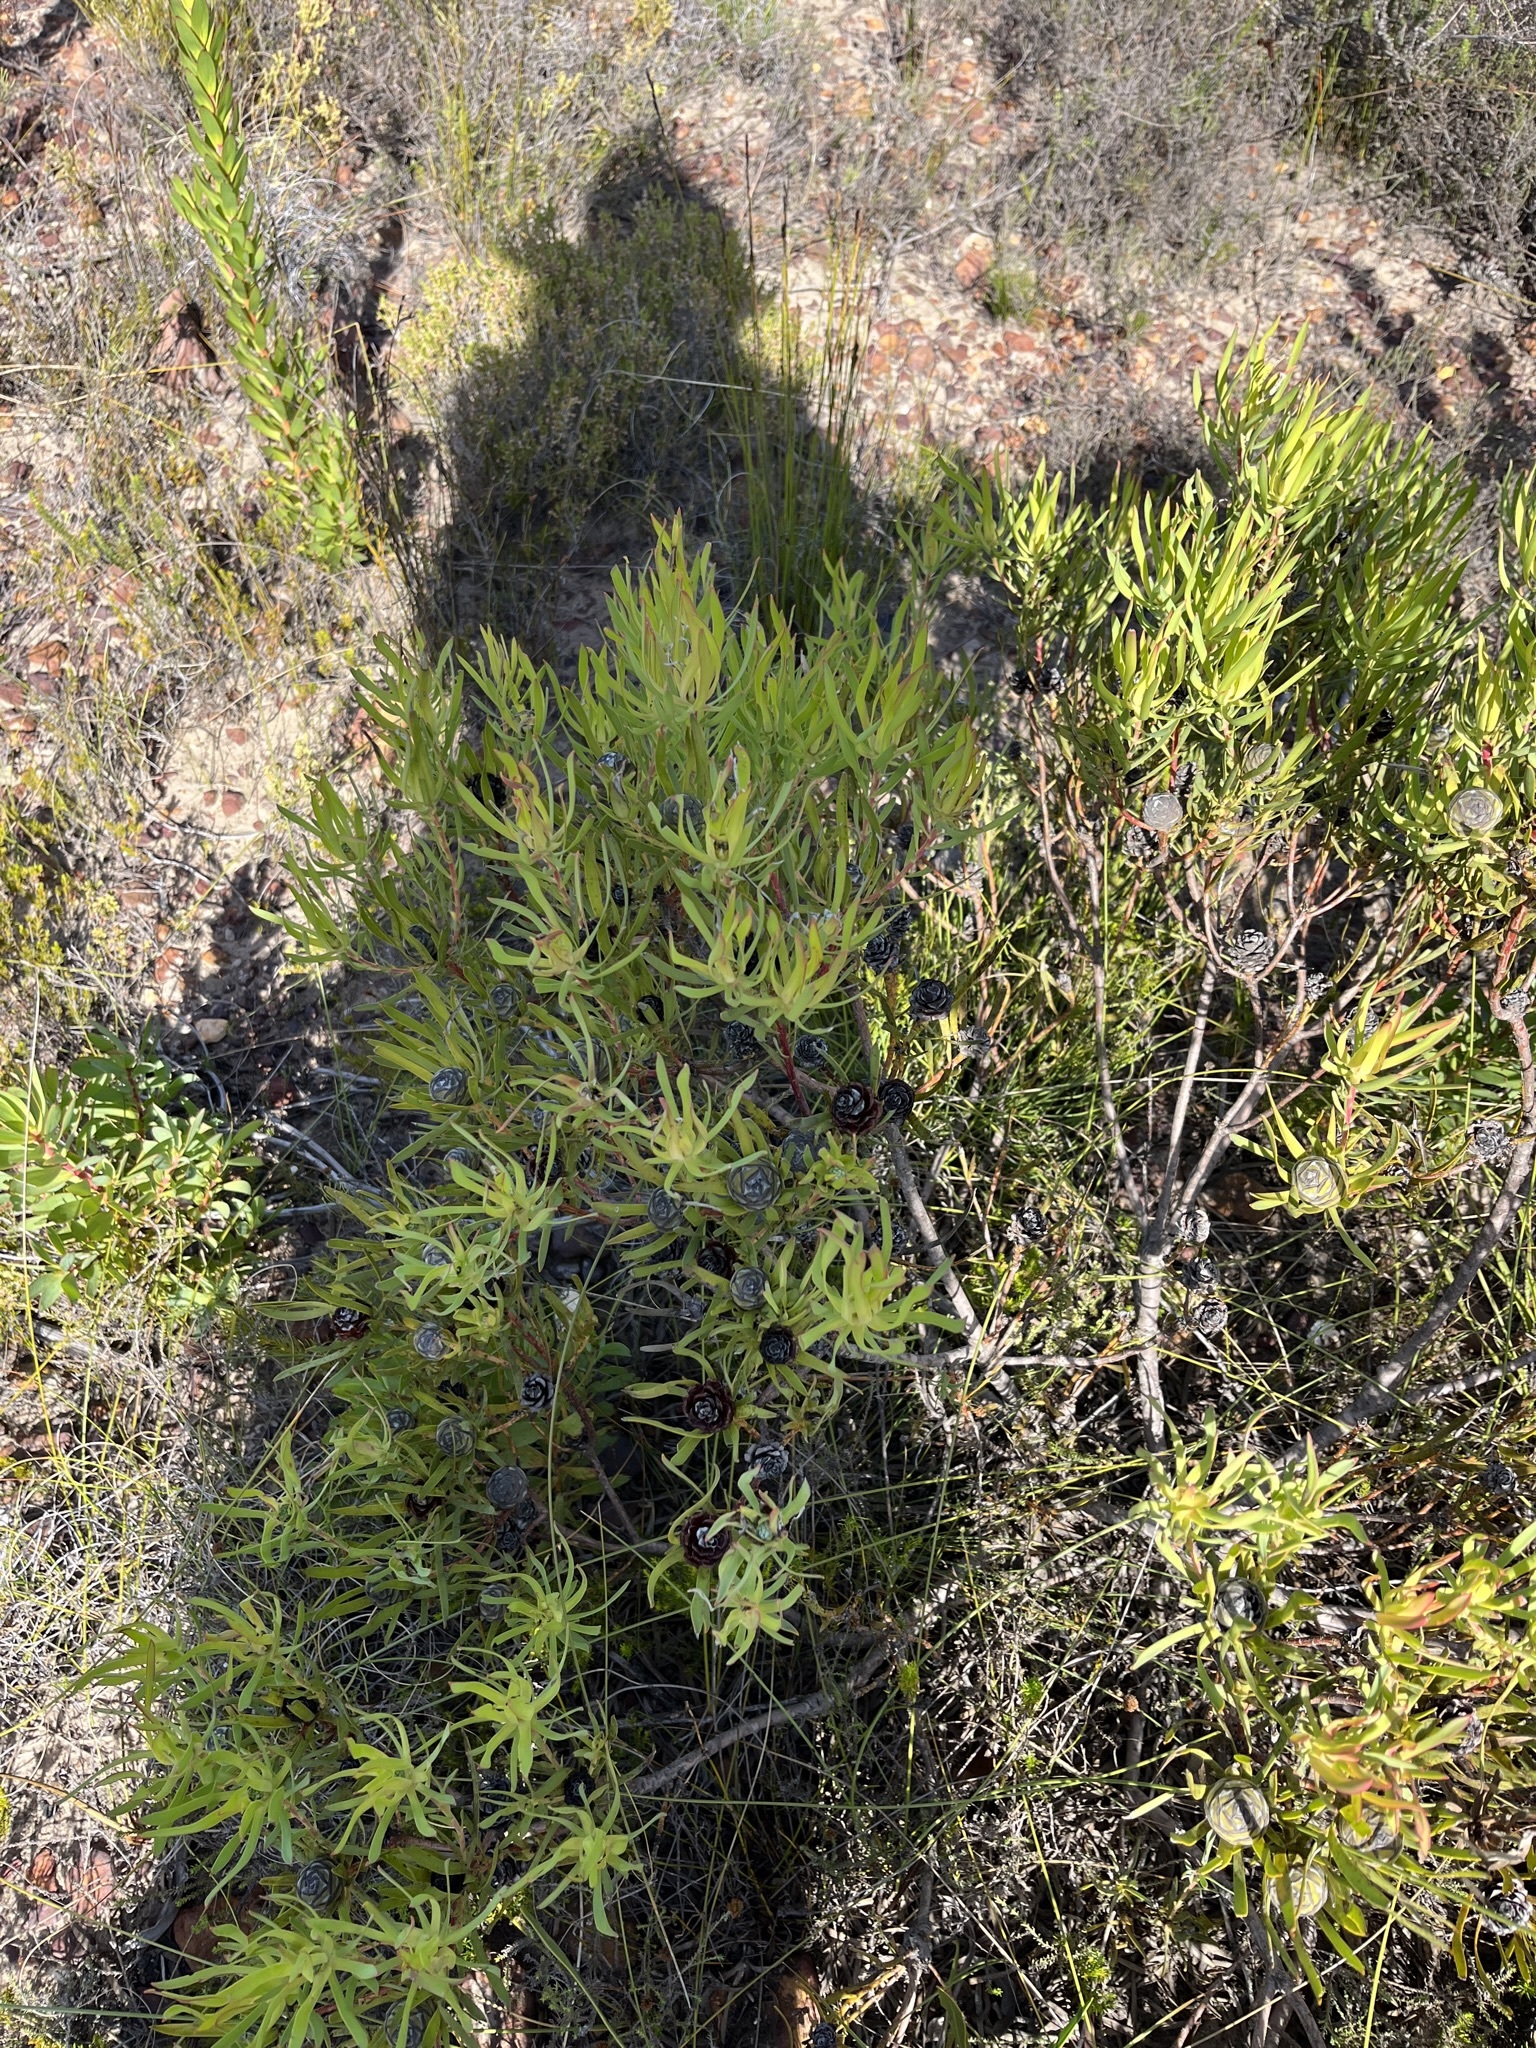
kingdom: Plantae
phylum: Tracheophyta
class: Magnoliopsida
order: Proteales
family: Proteaceae
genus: Leucadendron
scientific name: Leucadendron salignum
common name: Common sunshine conebush
